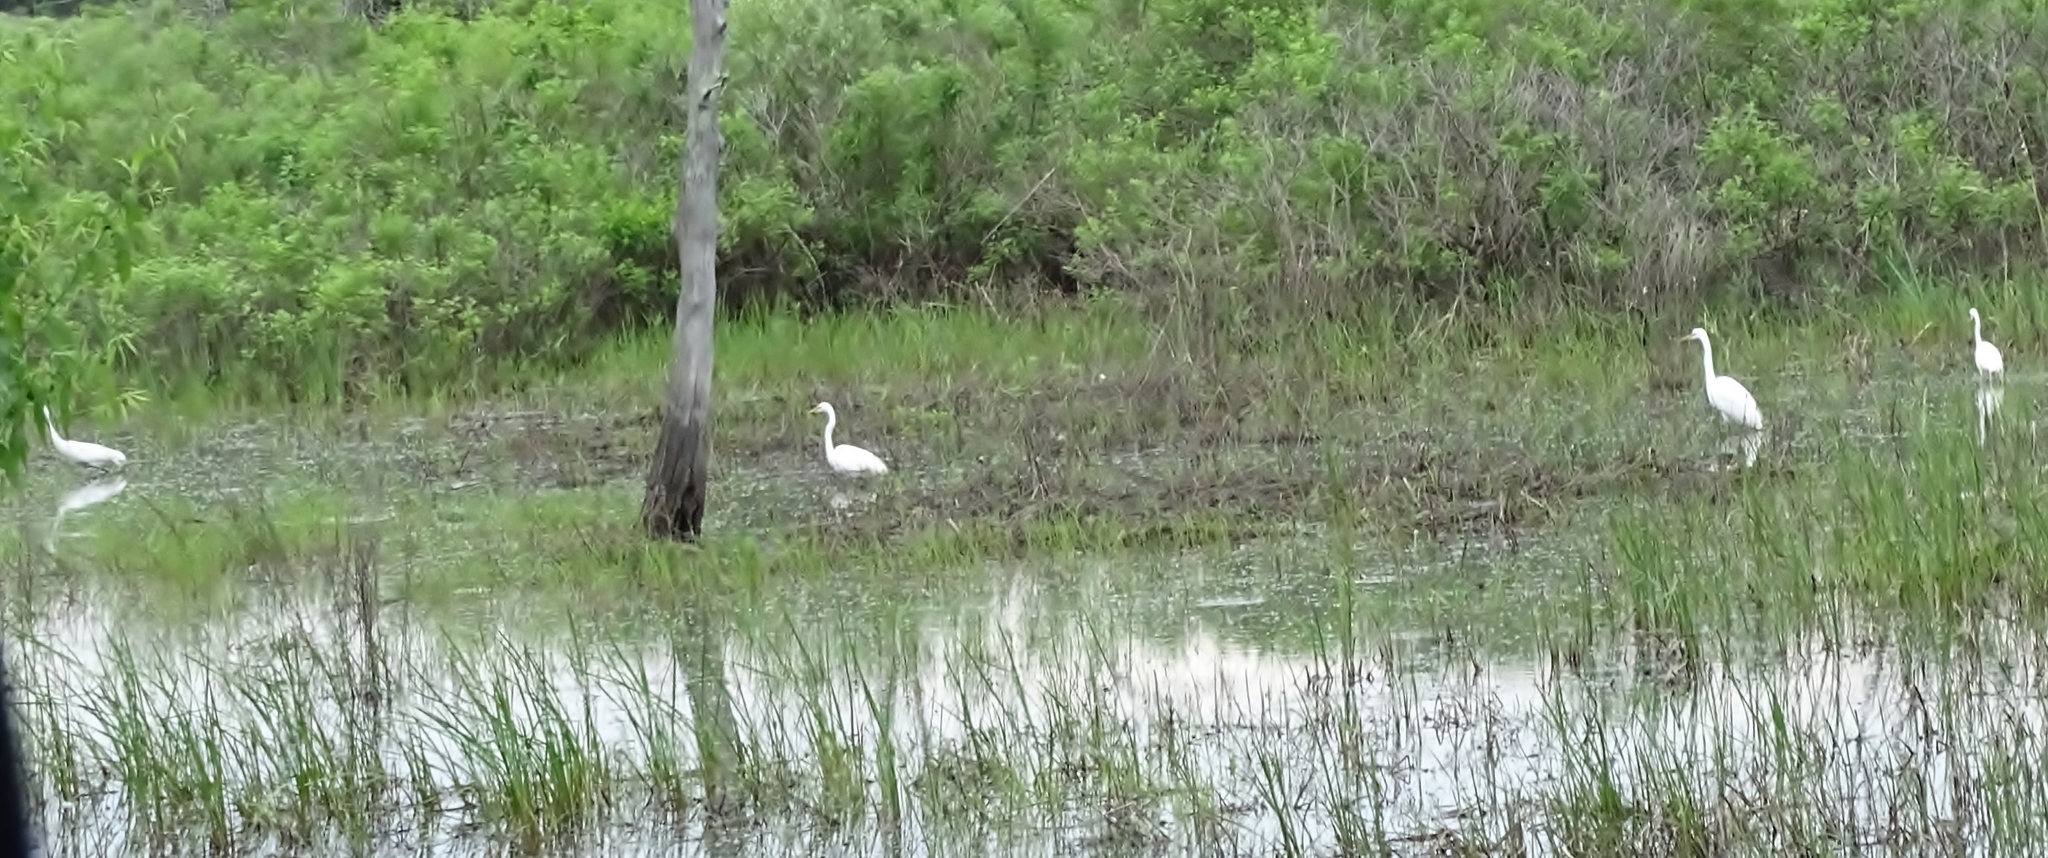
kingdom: Animalia
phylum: Chordata
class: Aves
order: Pelecaniformes
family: Ardeidae
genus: Ardea
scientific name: Ardea alba
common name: Great egret
